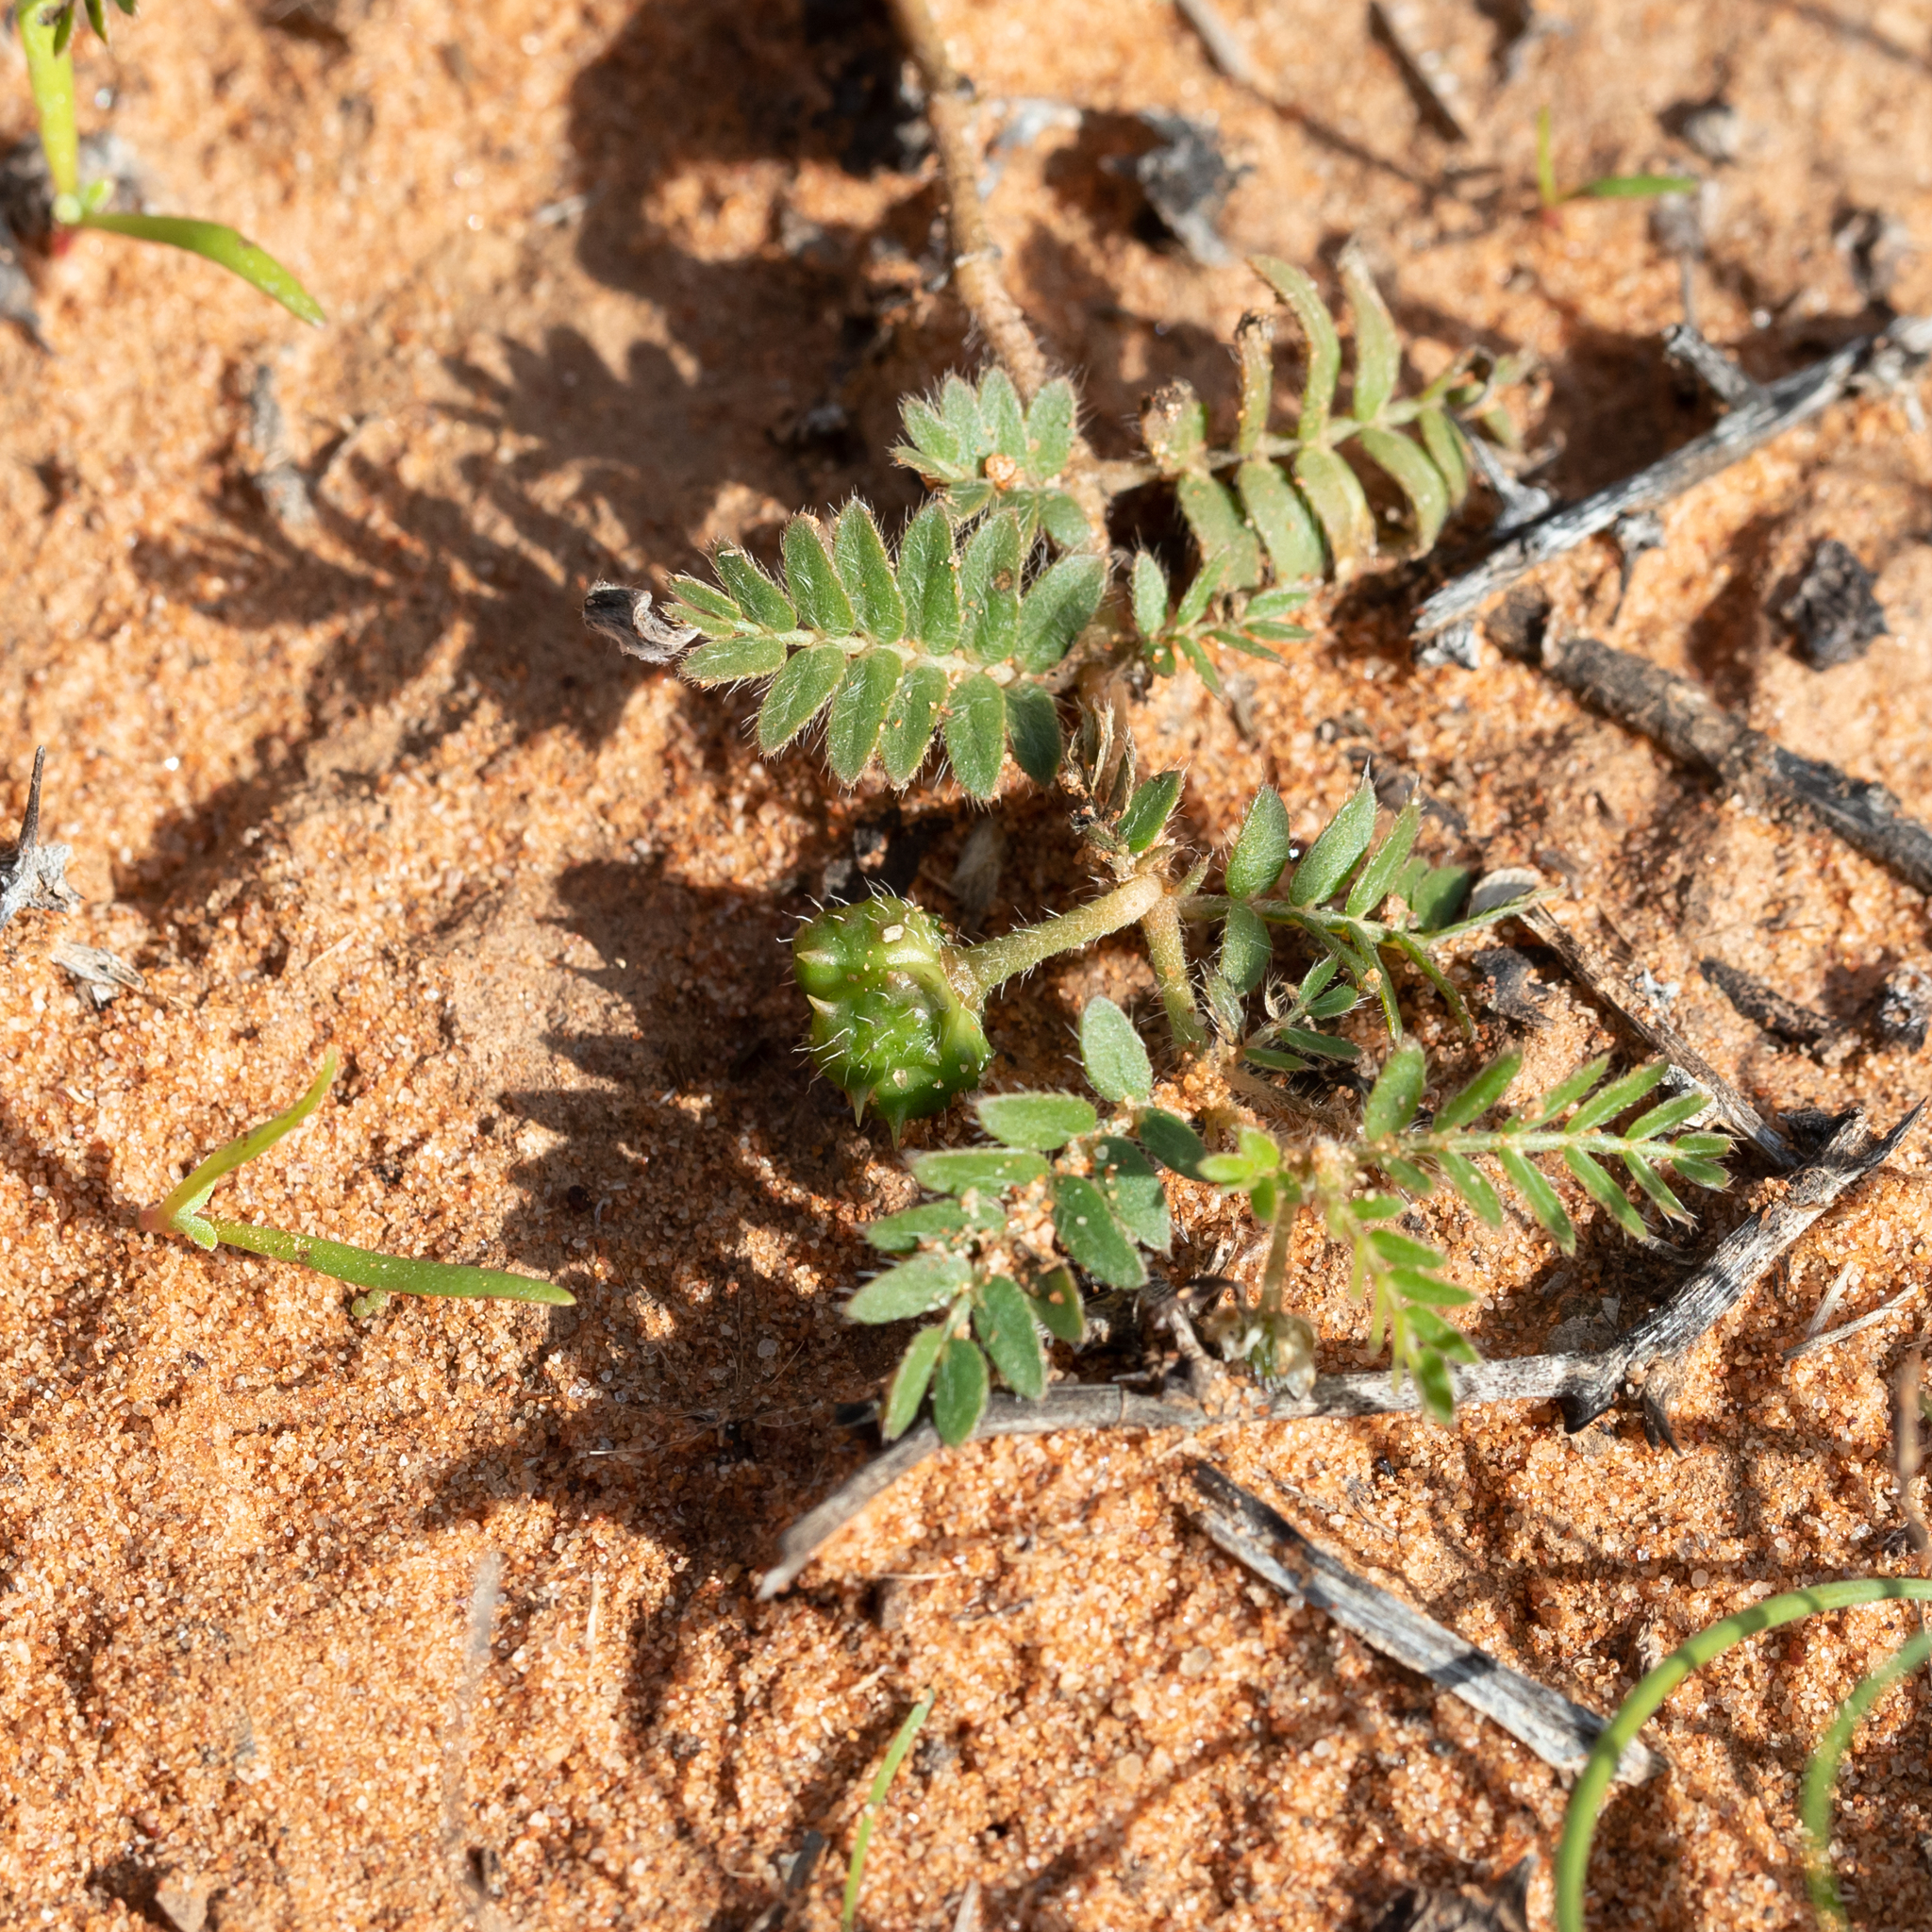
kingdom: Plantae
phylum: Tracheophyta
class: Magnoliopsida
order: Zygophyllales
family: Zygophyllaceae
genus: Tribulus
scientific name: Tribulus terrestris
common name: Puncturevine
